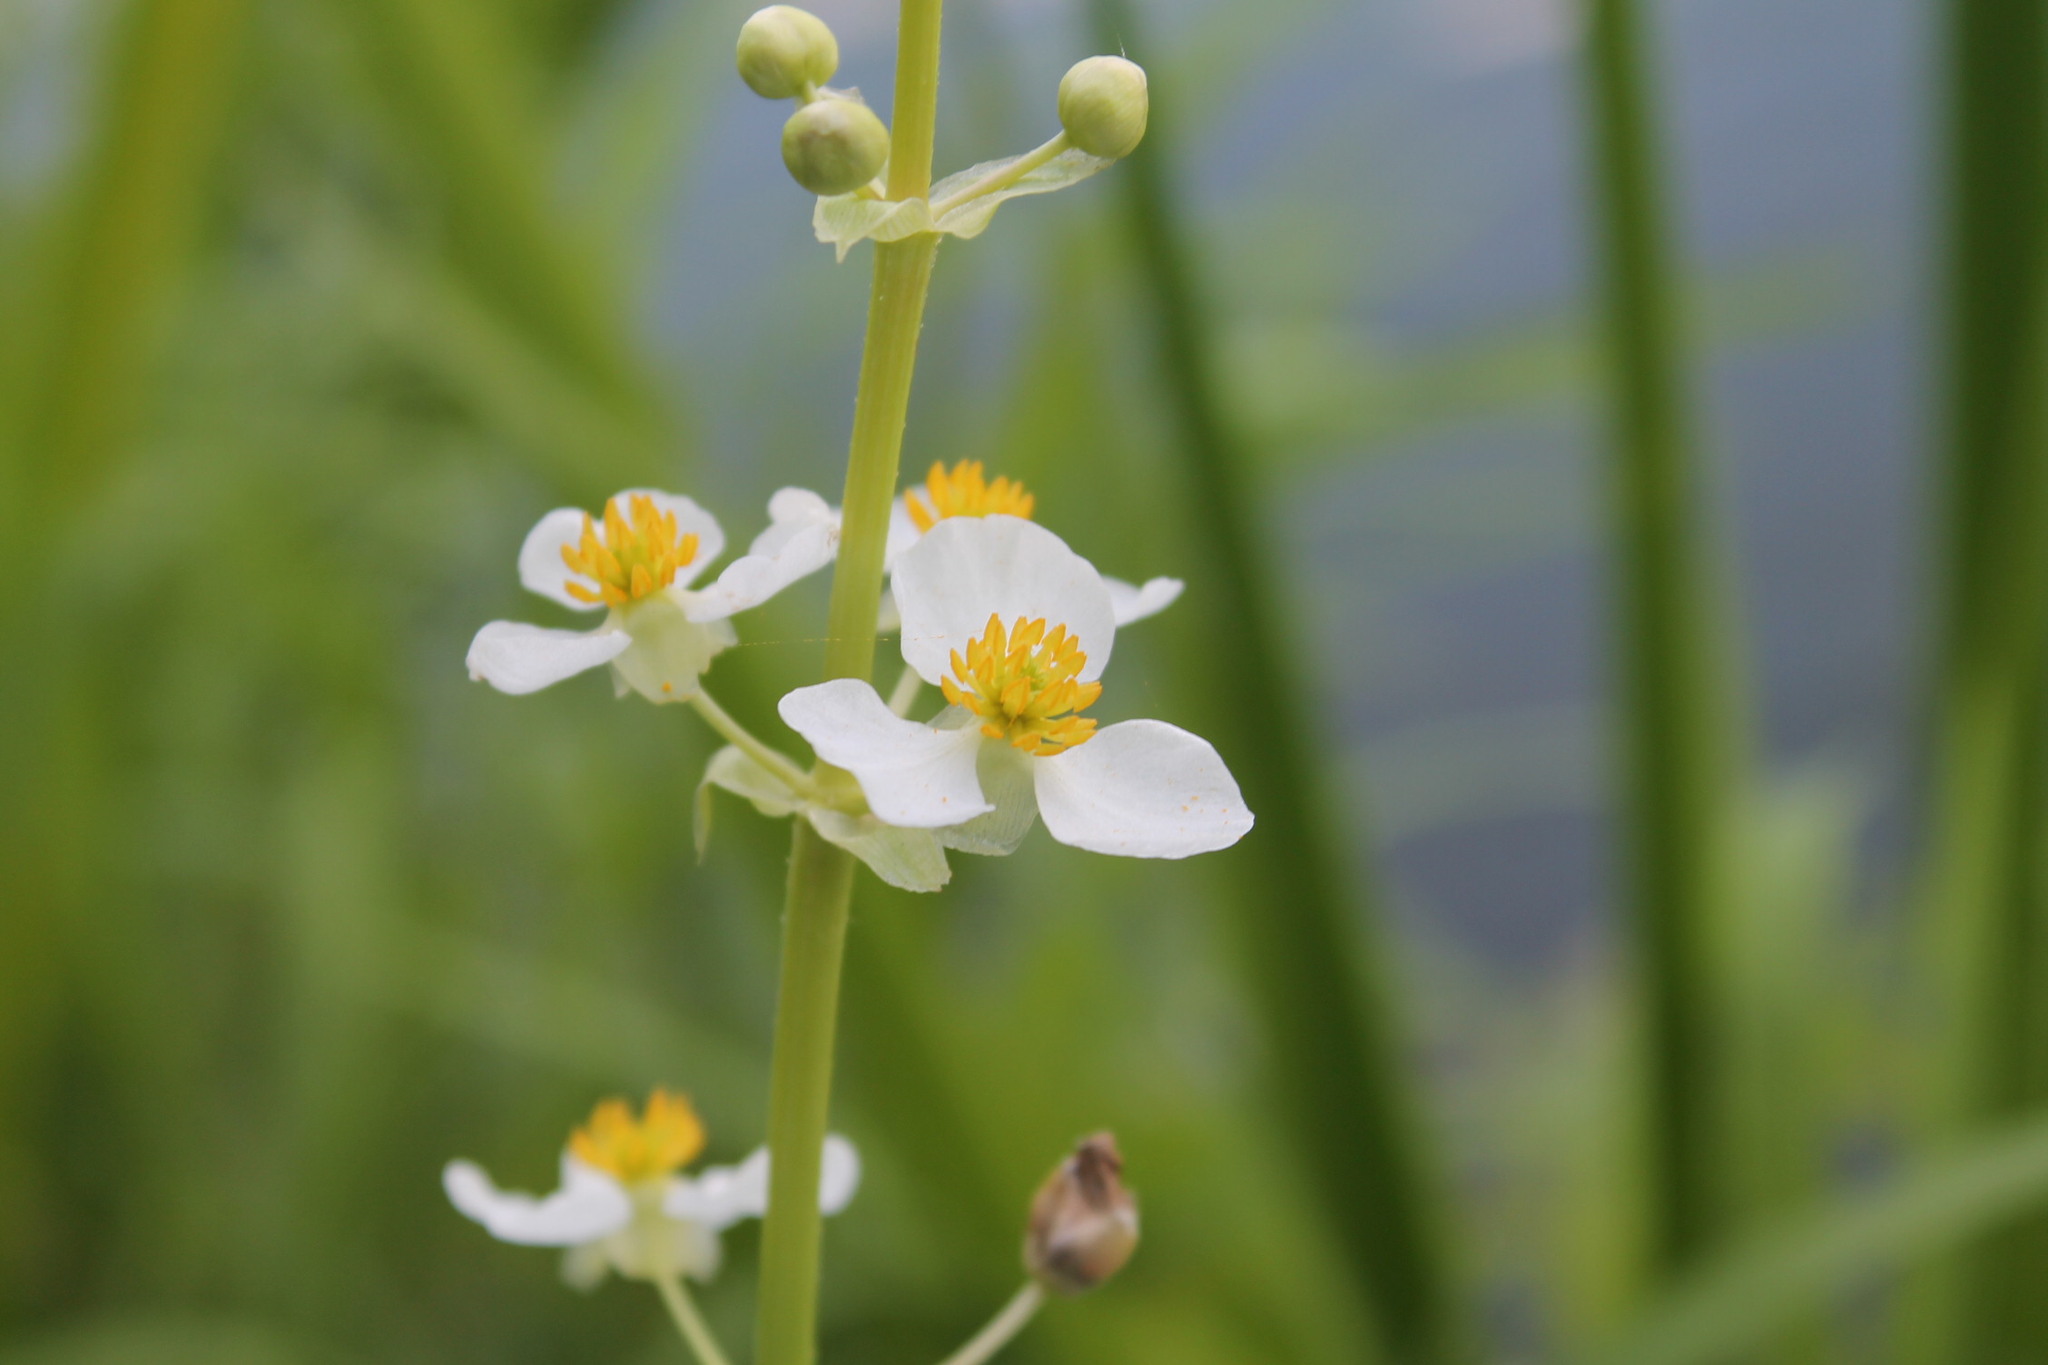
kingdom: Plantae
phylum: Tracheophyta
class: Liliopsida
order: Alismatales
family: Alismataceae
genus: Sagittaria
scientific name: Sagittaria latifolia
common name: Duck-potato
